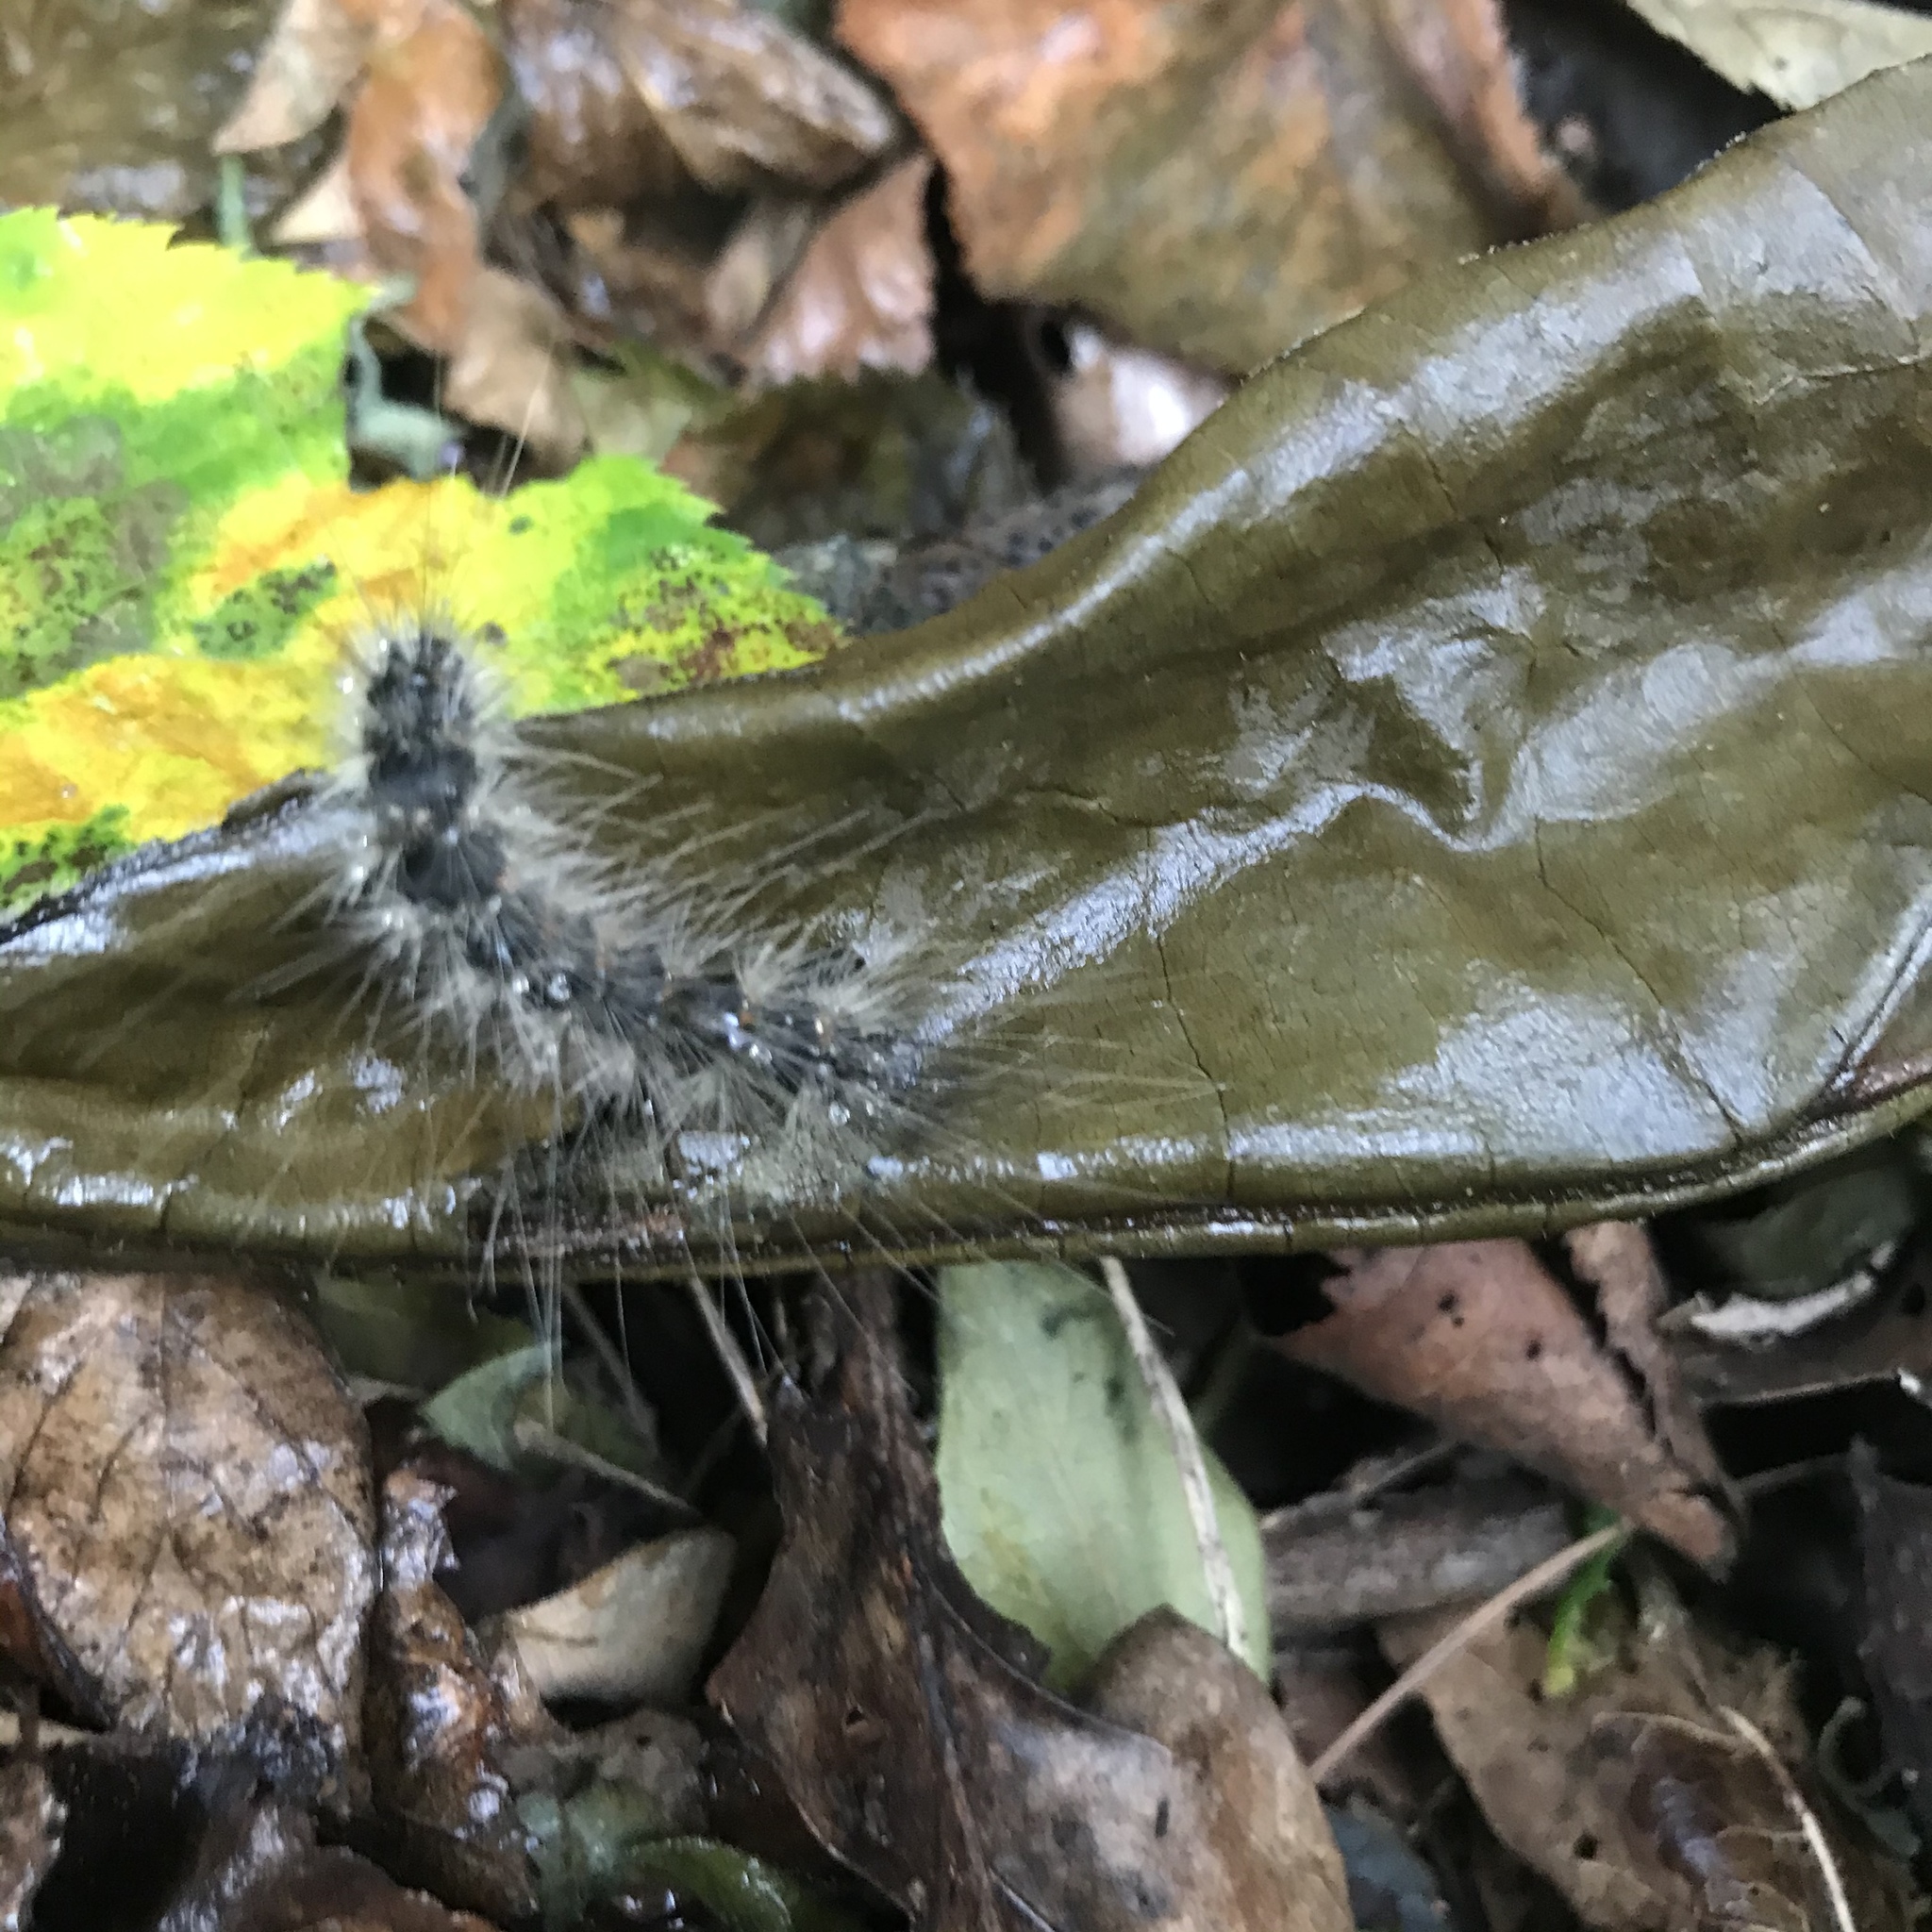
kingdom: Animalia
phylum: Arthropoda
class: Insecta
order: Lepidoptera
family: Erebidae
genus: Hyphantria
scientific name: Hyphantria cunea
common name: American white moth
